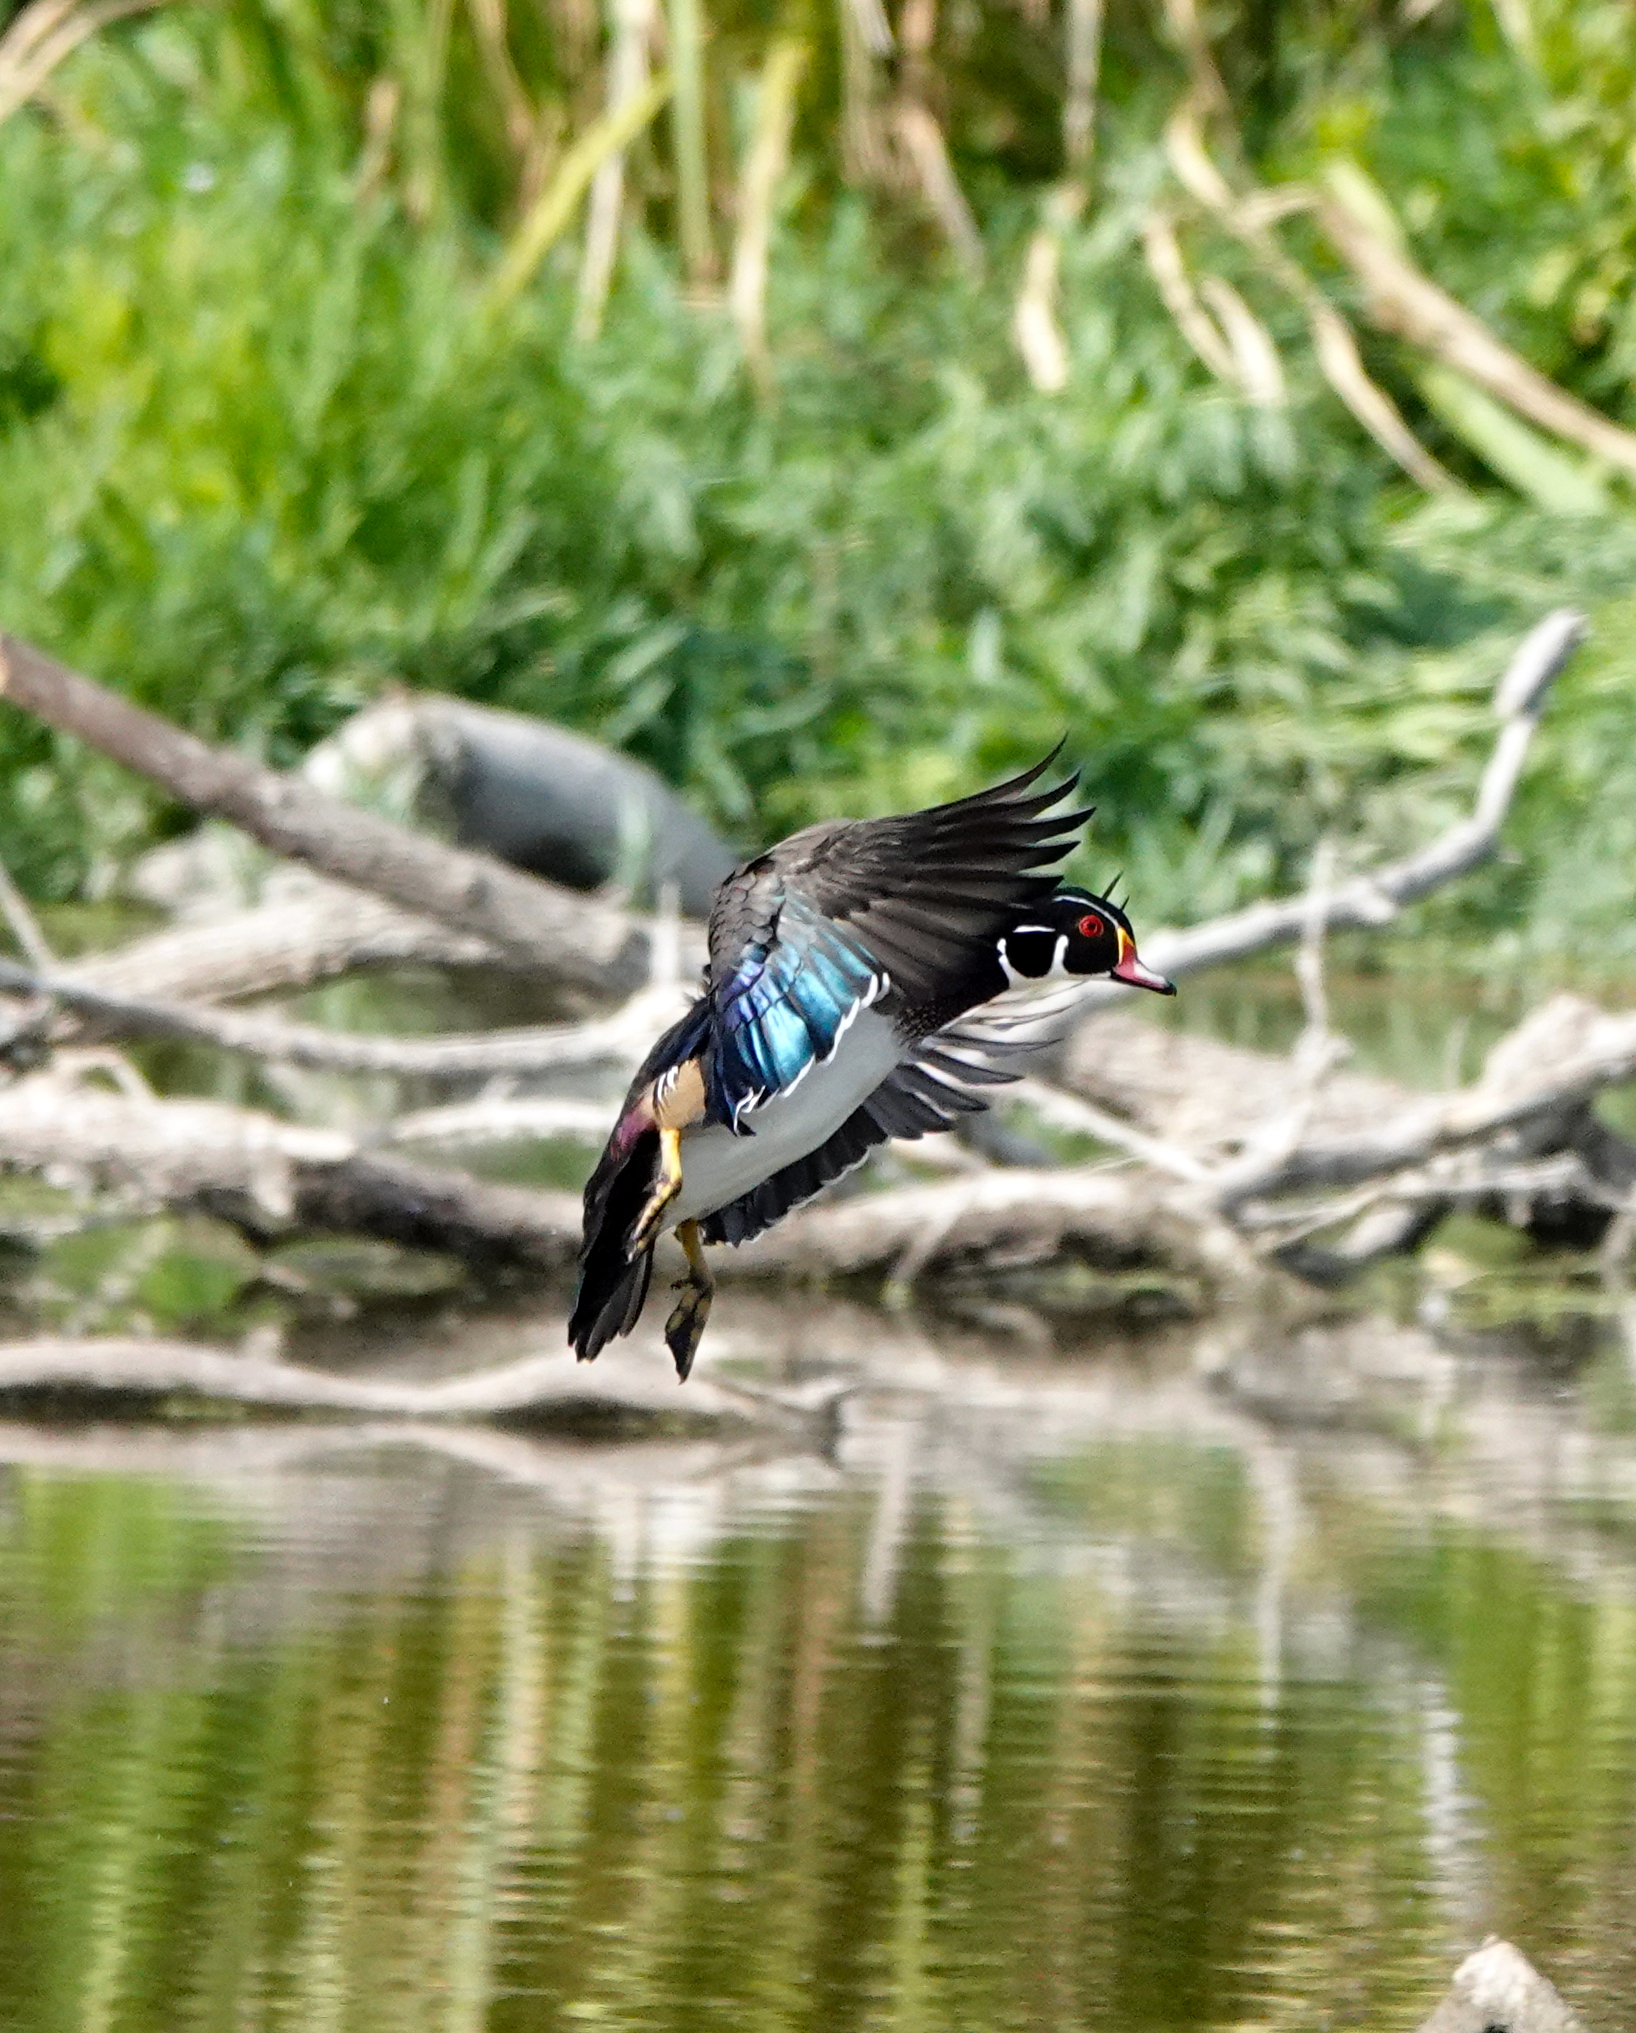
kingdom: Animalia
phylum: Chordata
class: Aves
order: Anseriformes
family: Anatidae
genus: Aix
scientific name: Aix sponsa
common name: Wood duck
